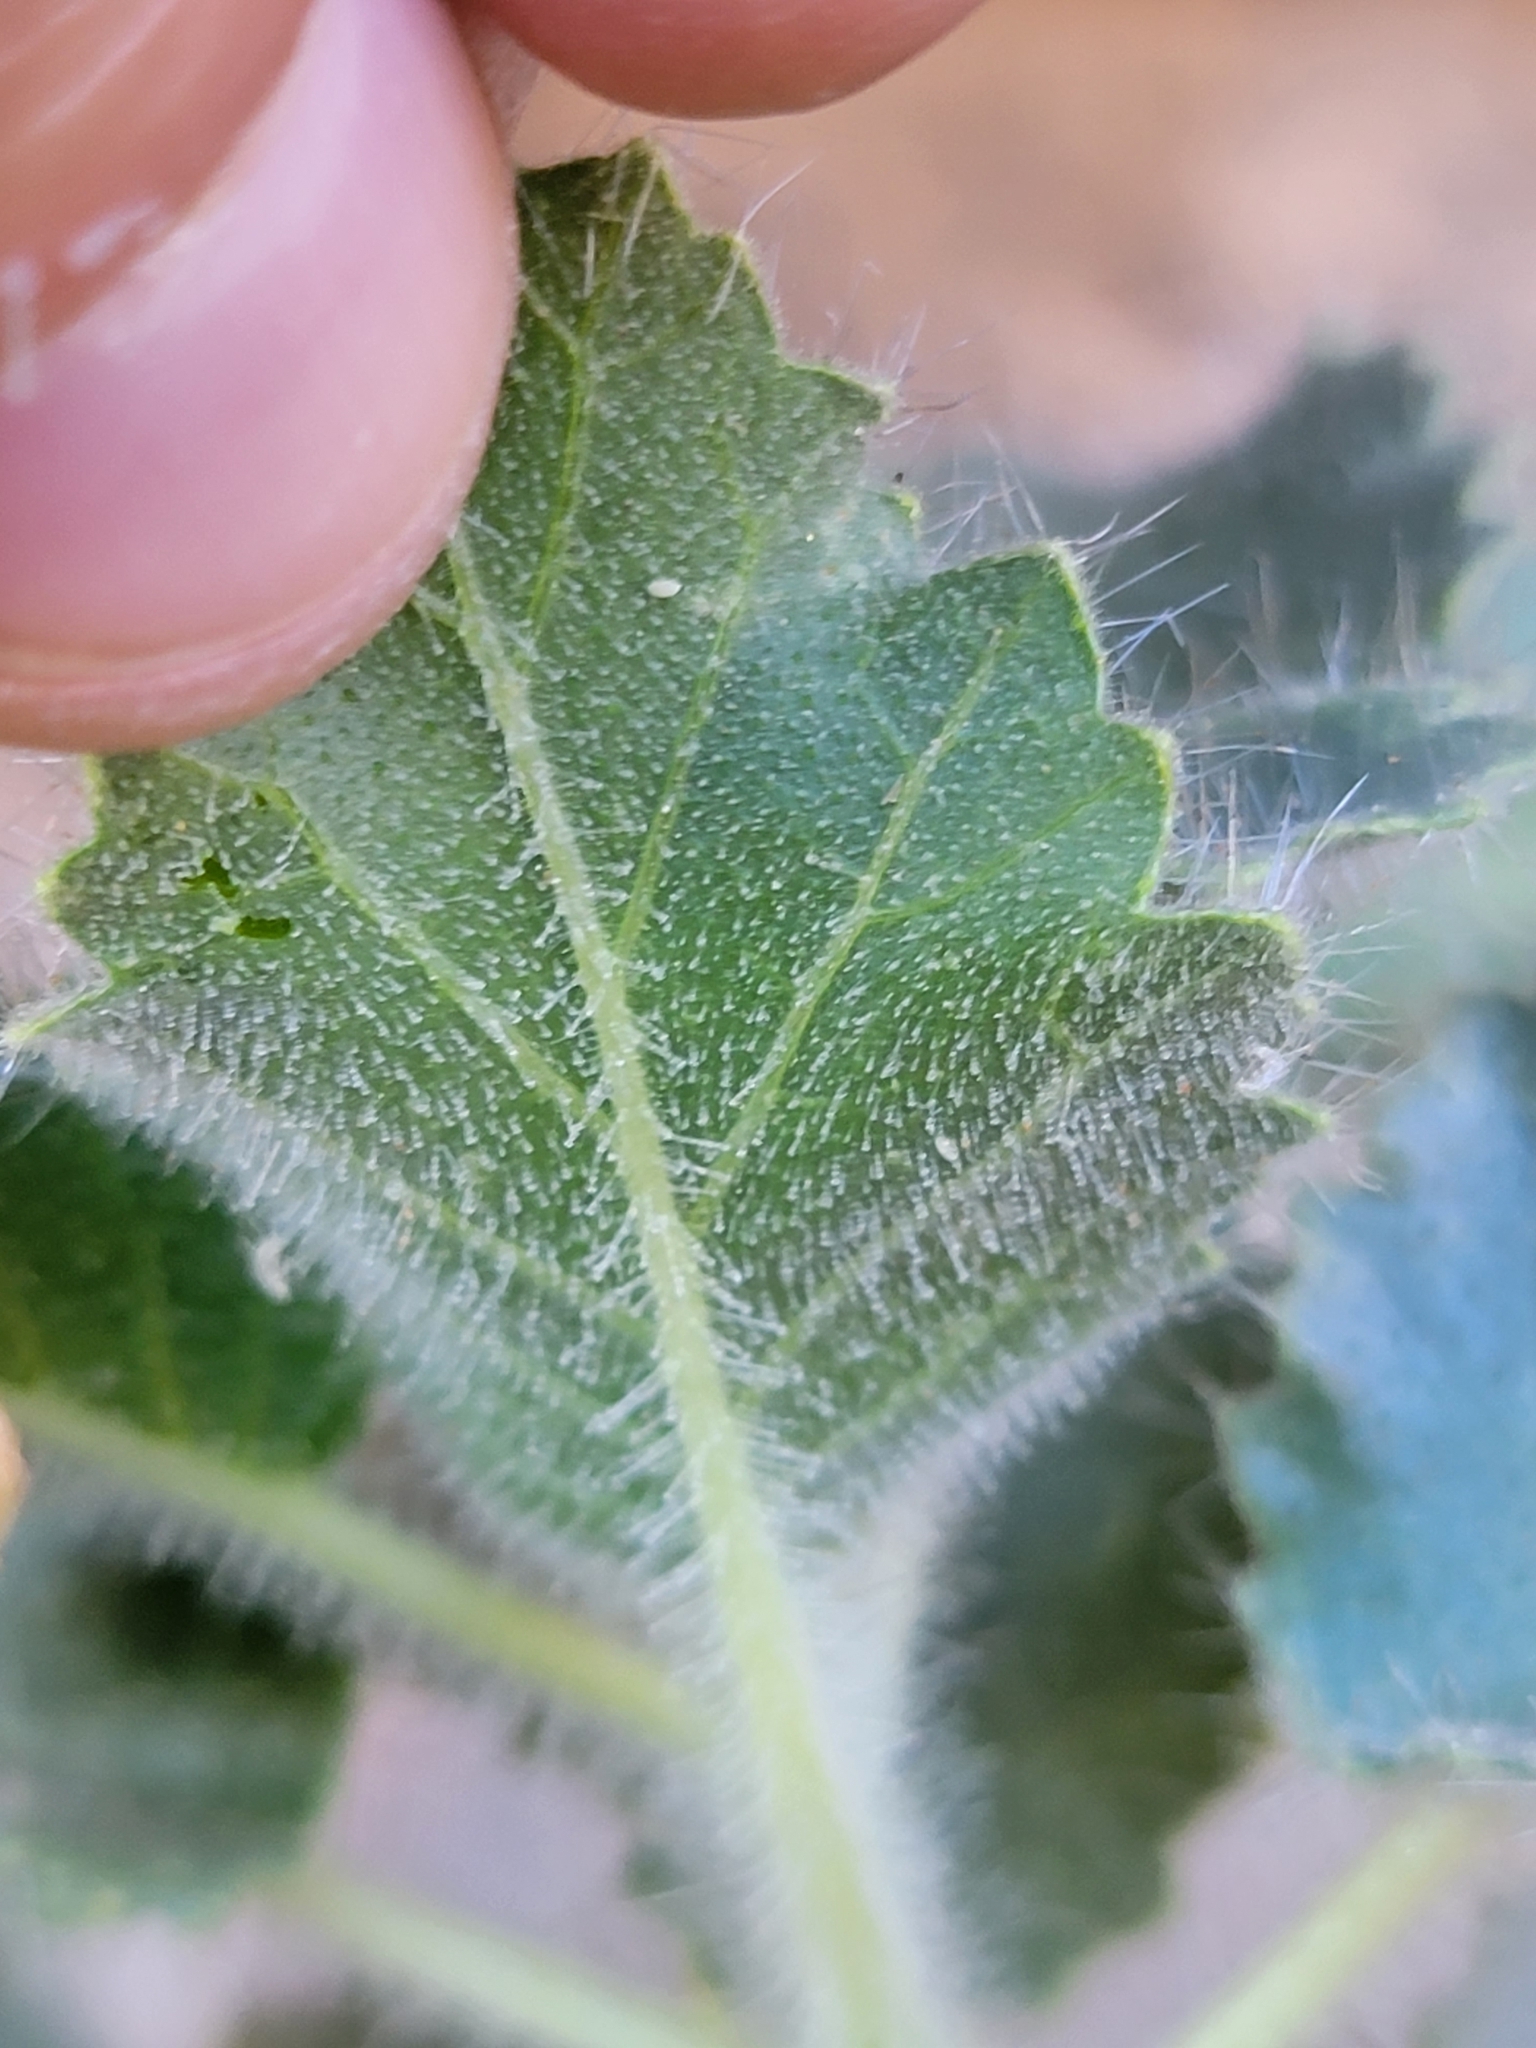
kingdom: Plantae
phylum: Tracheophyta
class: Magnoliopsida
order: Cornales
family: Loasaceae
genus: Eucnide
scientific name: Eucnide urens
